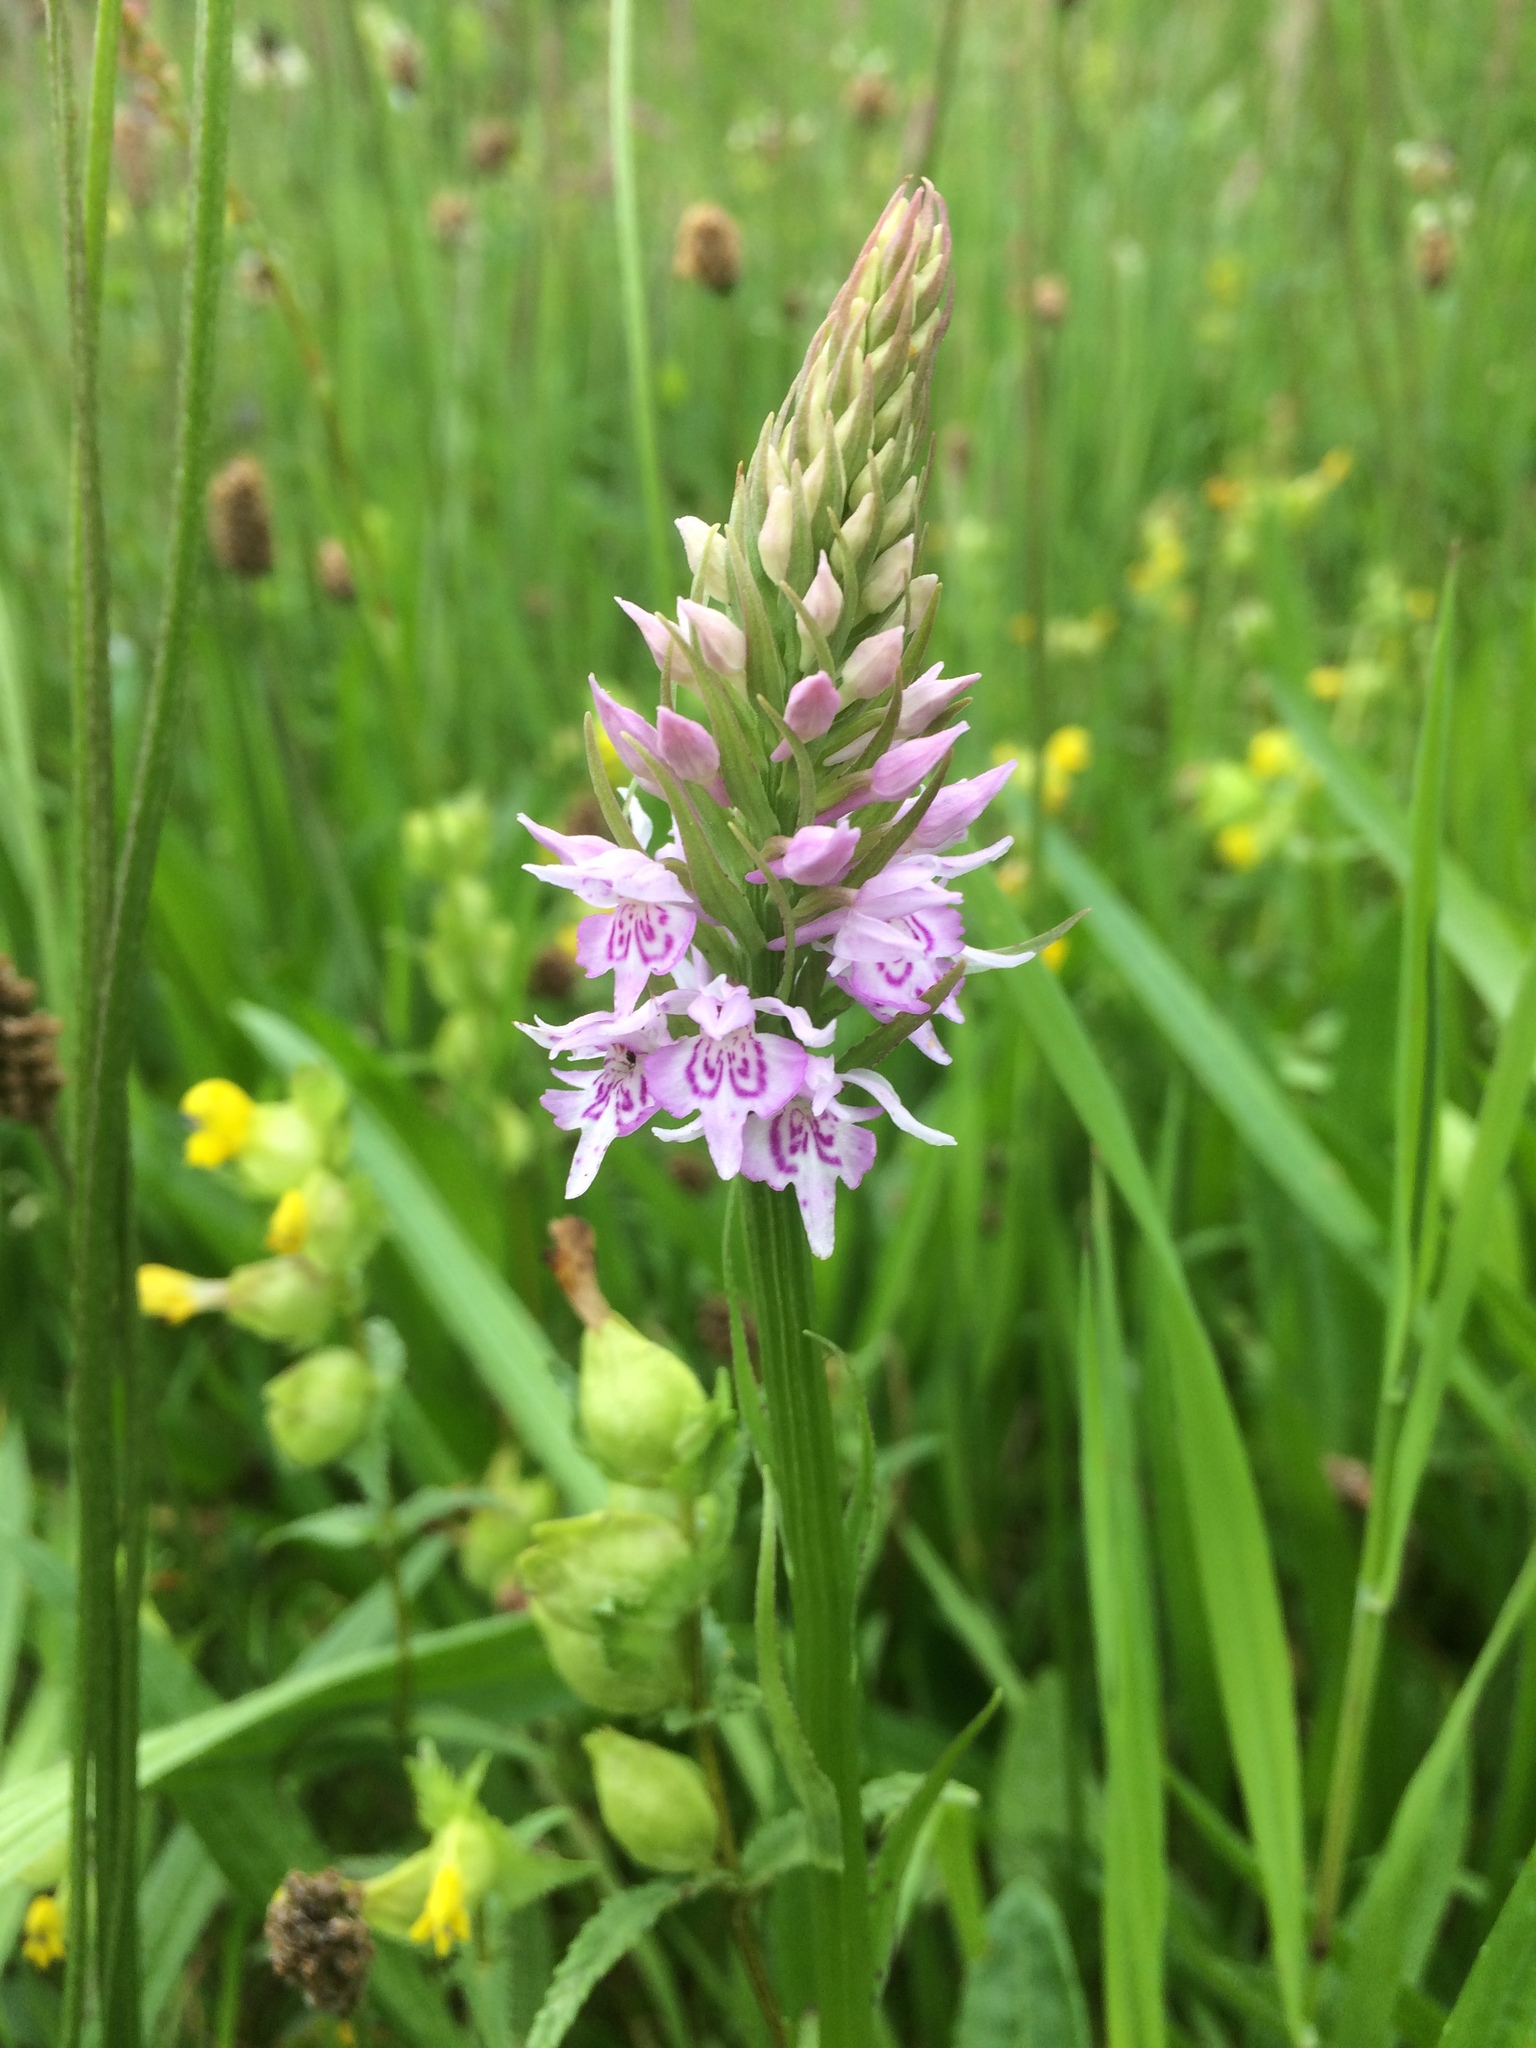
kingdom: Plantae
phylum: Tracheophyta
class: Liliopsida
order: Asparagales
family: Orchidaceae
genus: Dactylorhiza
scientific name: Dactylorhiza maculata
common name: Heath spotted-orchid
